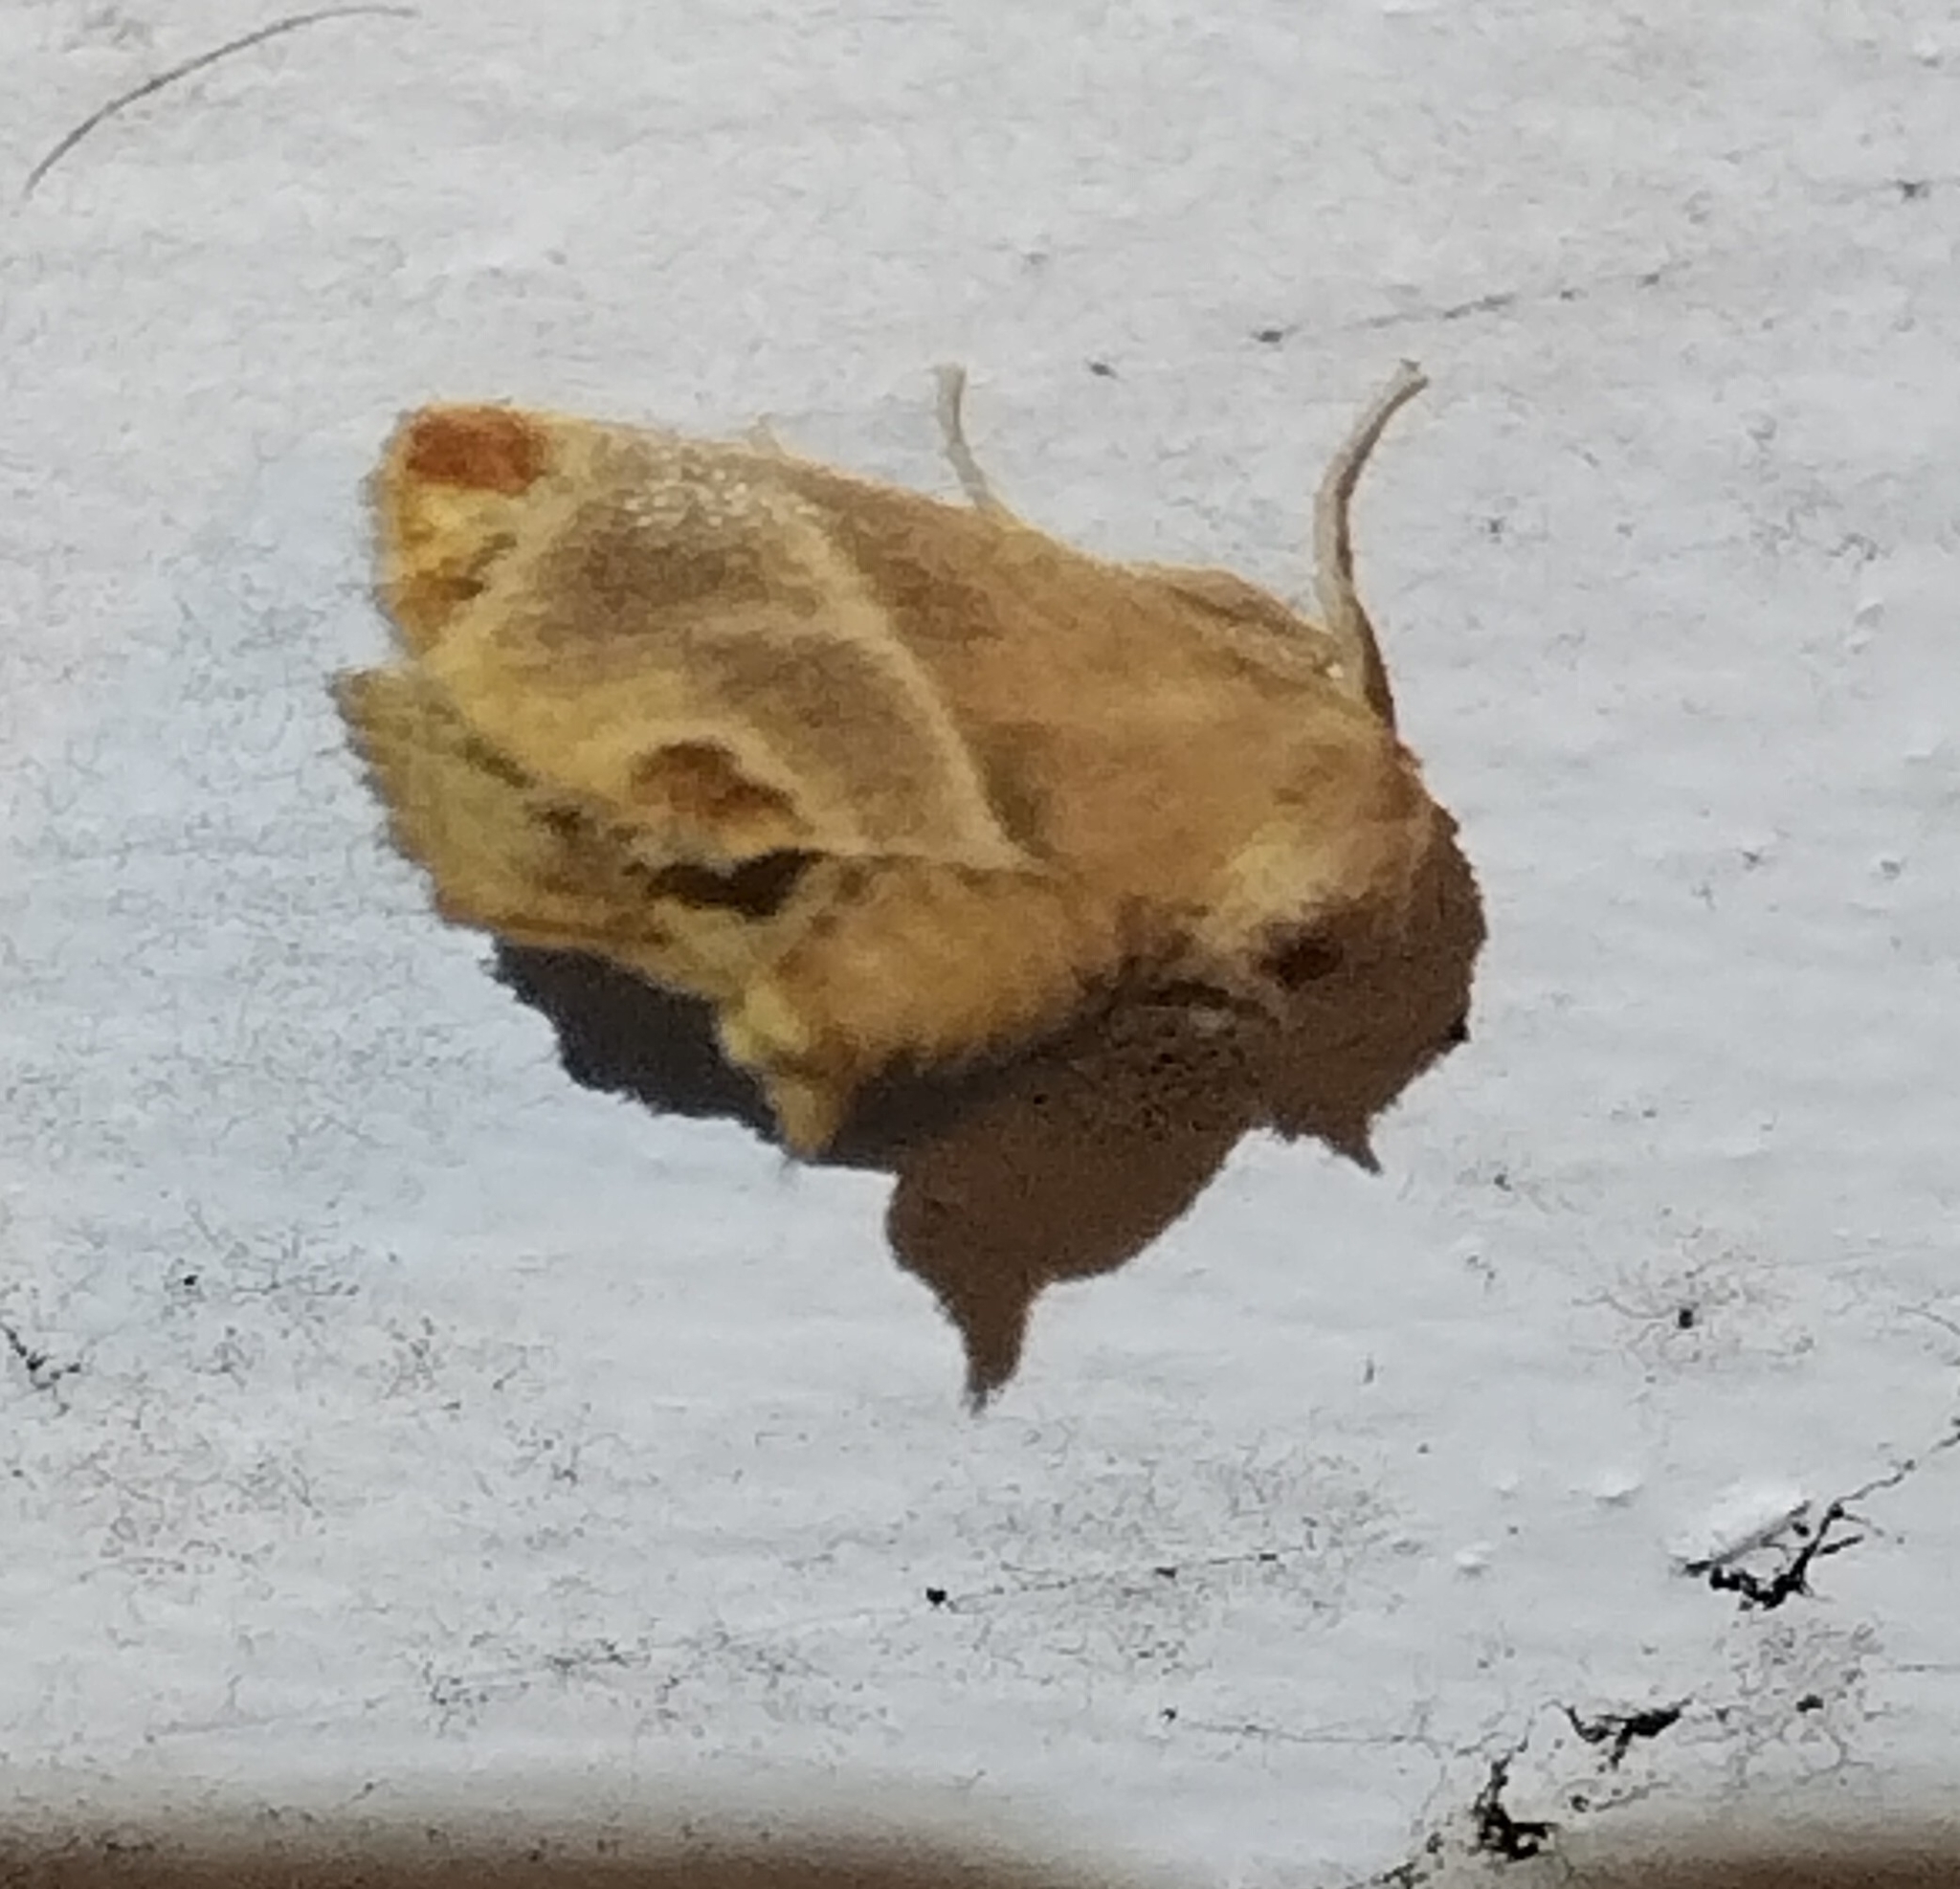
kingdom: Animalia
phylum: Arthropoda
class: Insecta
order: Lepidoptera
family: Limacodidae
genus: Apoda
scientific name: Apoda biguttata
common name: Shagreened slug moth
